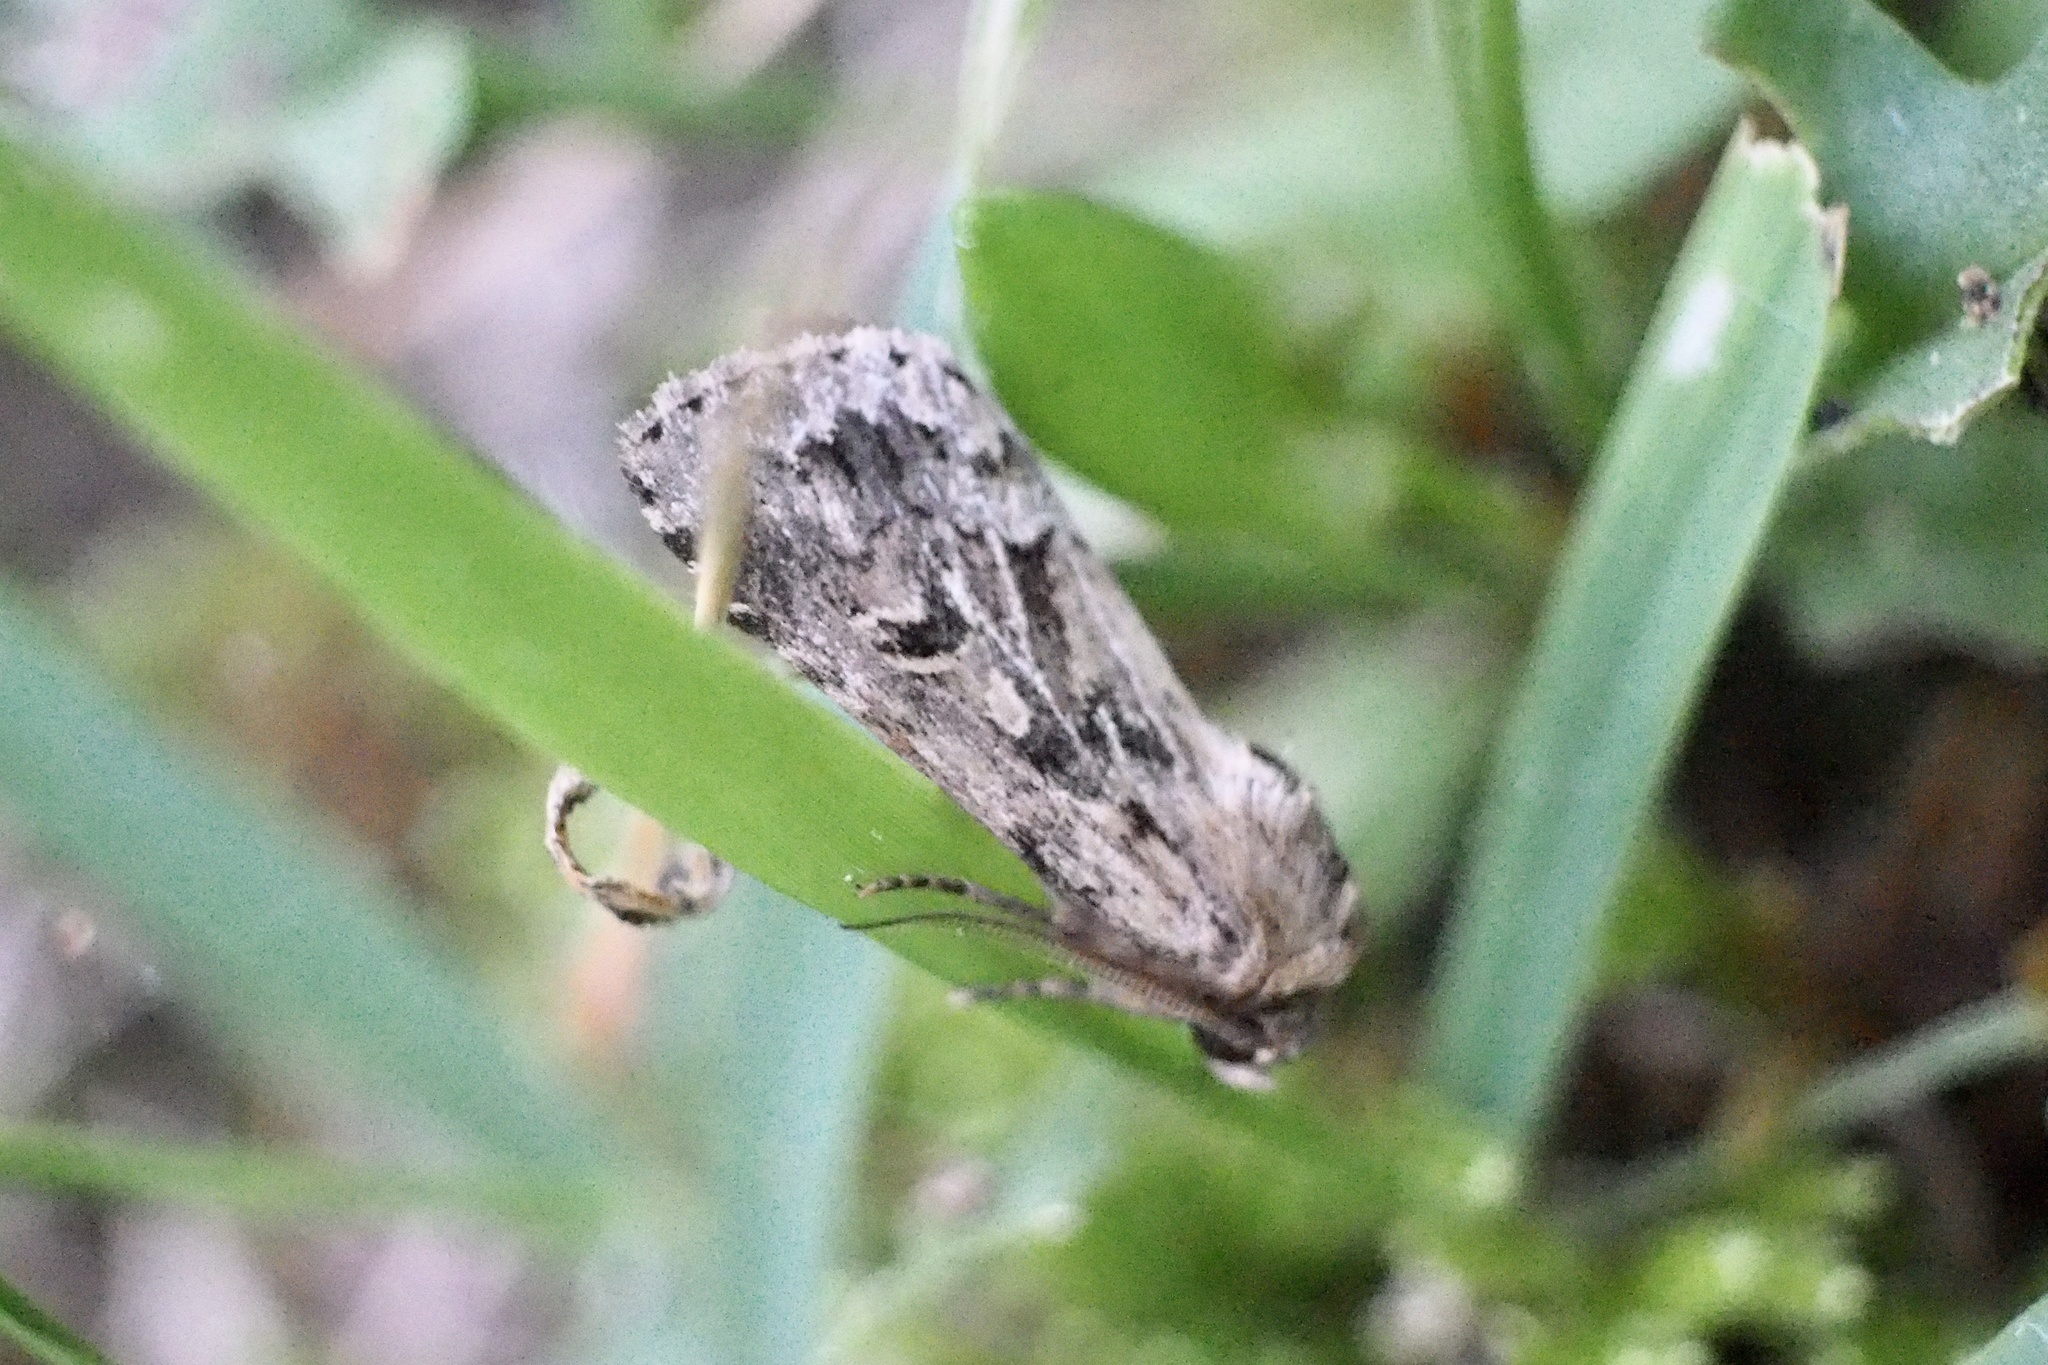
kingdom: Animalia
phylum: Arthropoda
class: Insecta
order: Lepidoptera
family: Noctuidae
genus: Spodoptera
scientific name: Spodoptera depravata
